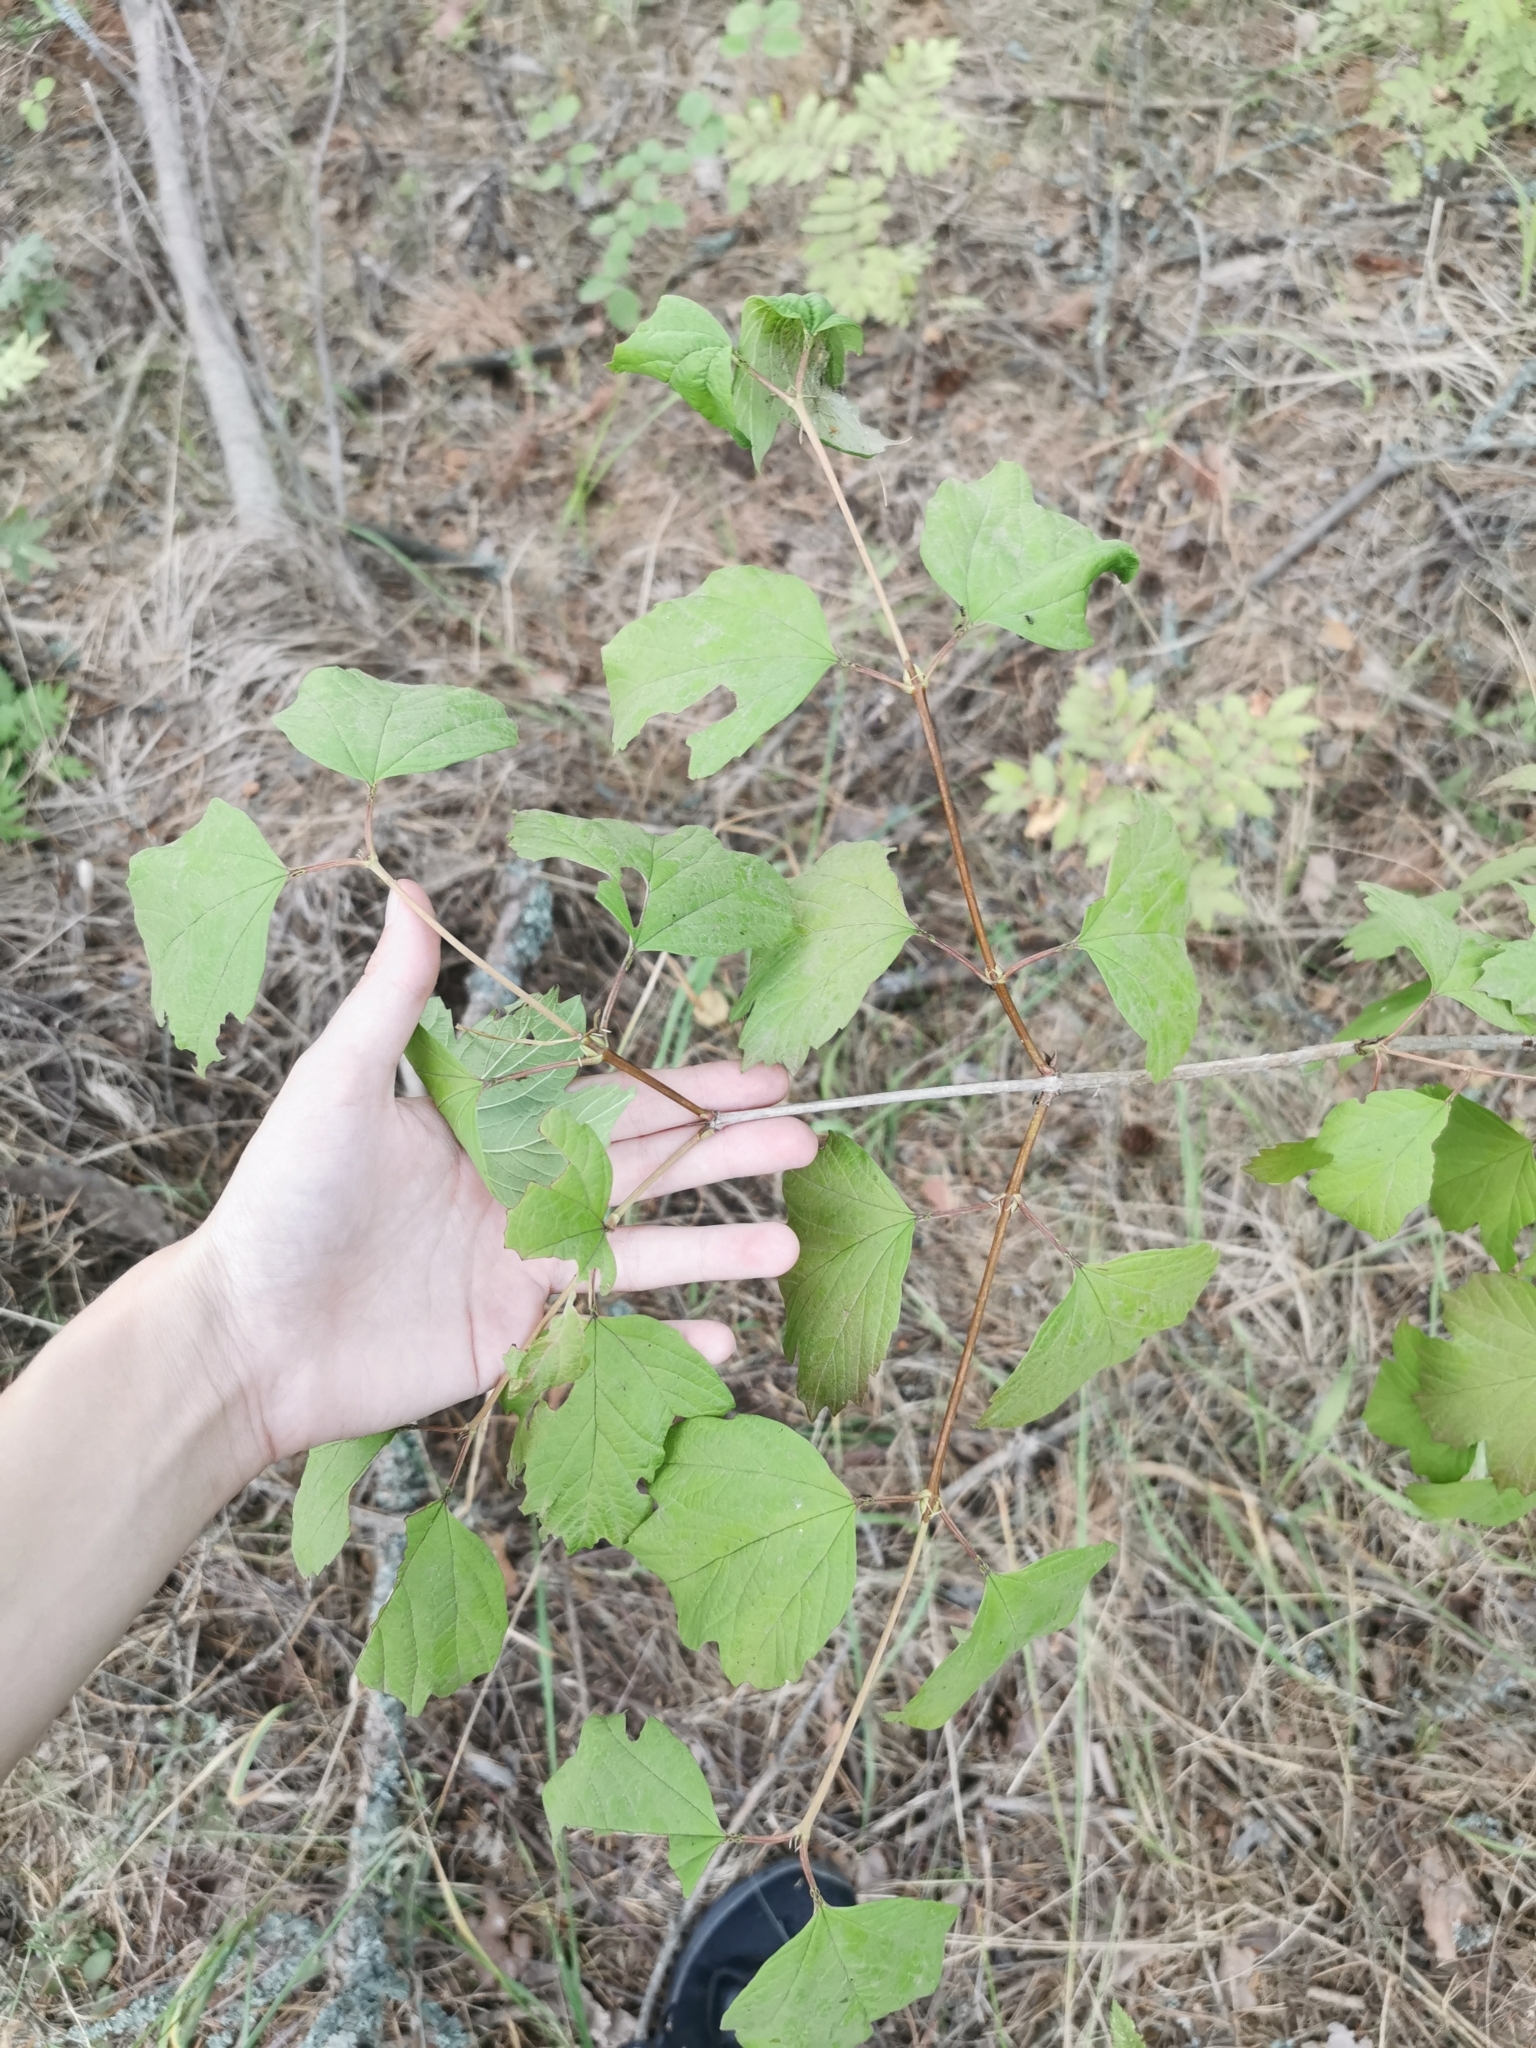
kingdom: Plantae
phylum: Tracheophyta
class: Magnoliopsida
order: Dipsacales
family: Viburnaceae
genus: Viburnum
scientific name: Viburnum opulus
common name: Guelder-rose
